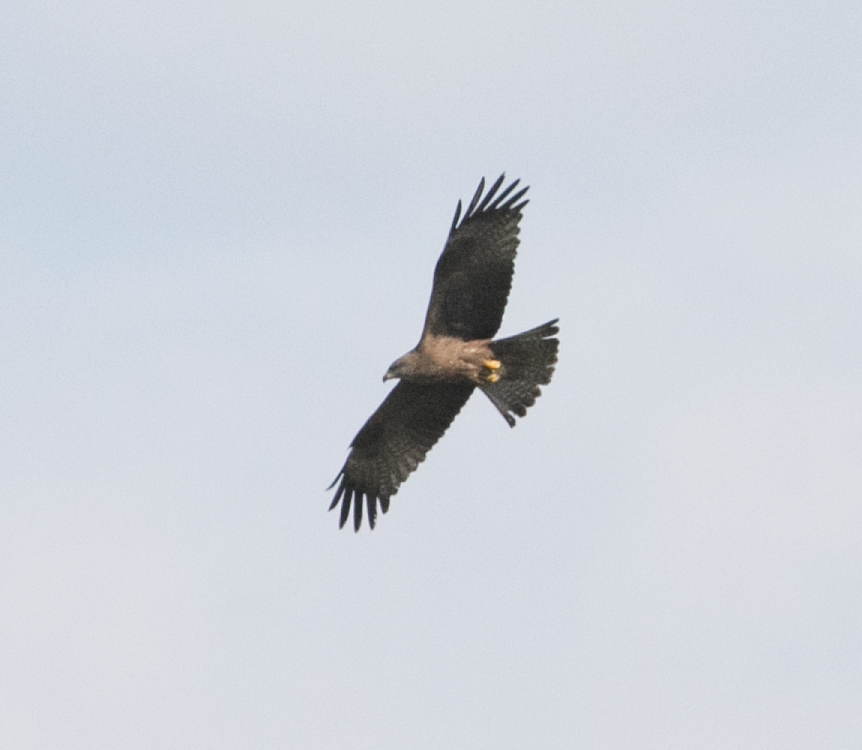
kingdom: Animalia
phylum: Chordata
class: Aves
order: Accipitriformes
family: Accipitridae
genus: Milvus
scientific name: Milvus migrans
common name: Black kite
